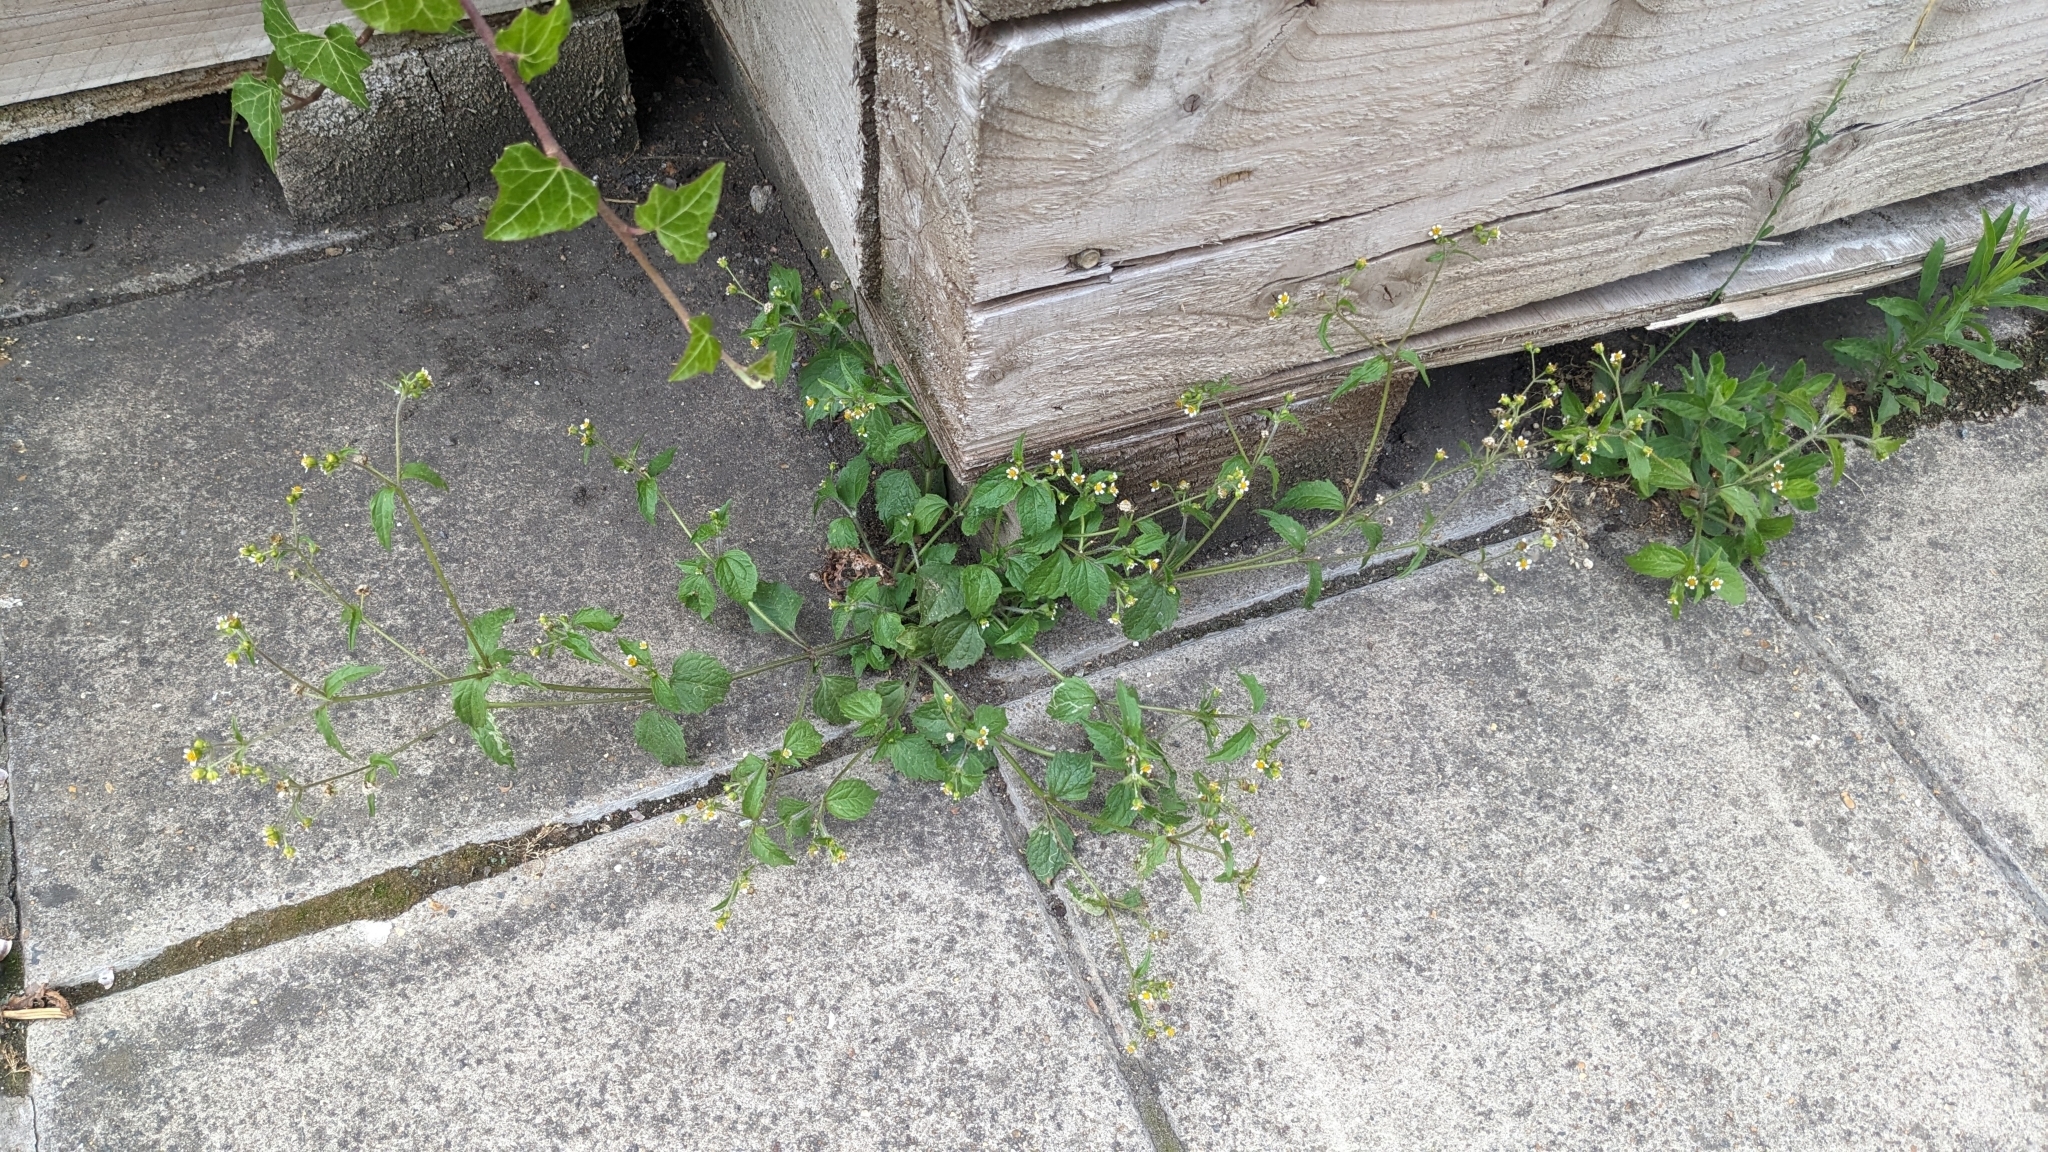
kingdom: Plantae
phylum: Tracheophyta
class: Magnoliopsida
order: Asterales
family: Asteraceae
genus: Galinsoga
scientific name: Galinsoga quadriradiata
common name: Shaggy soldier
